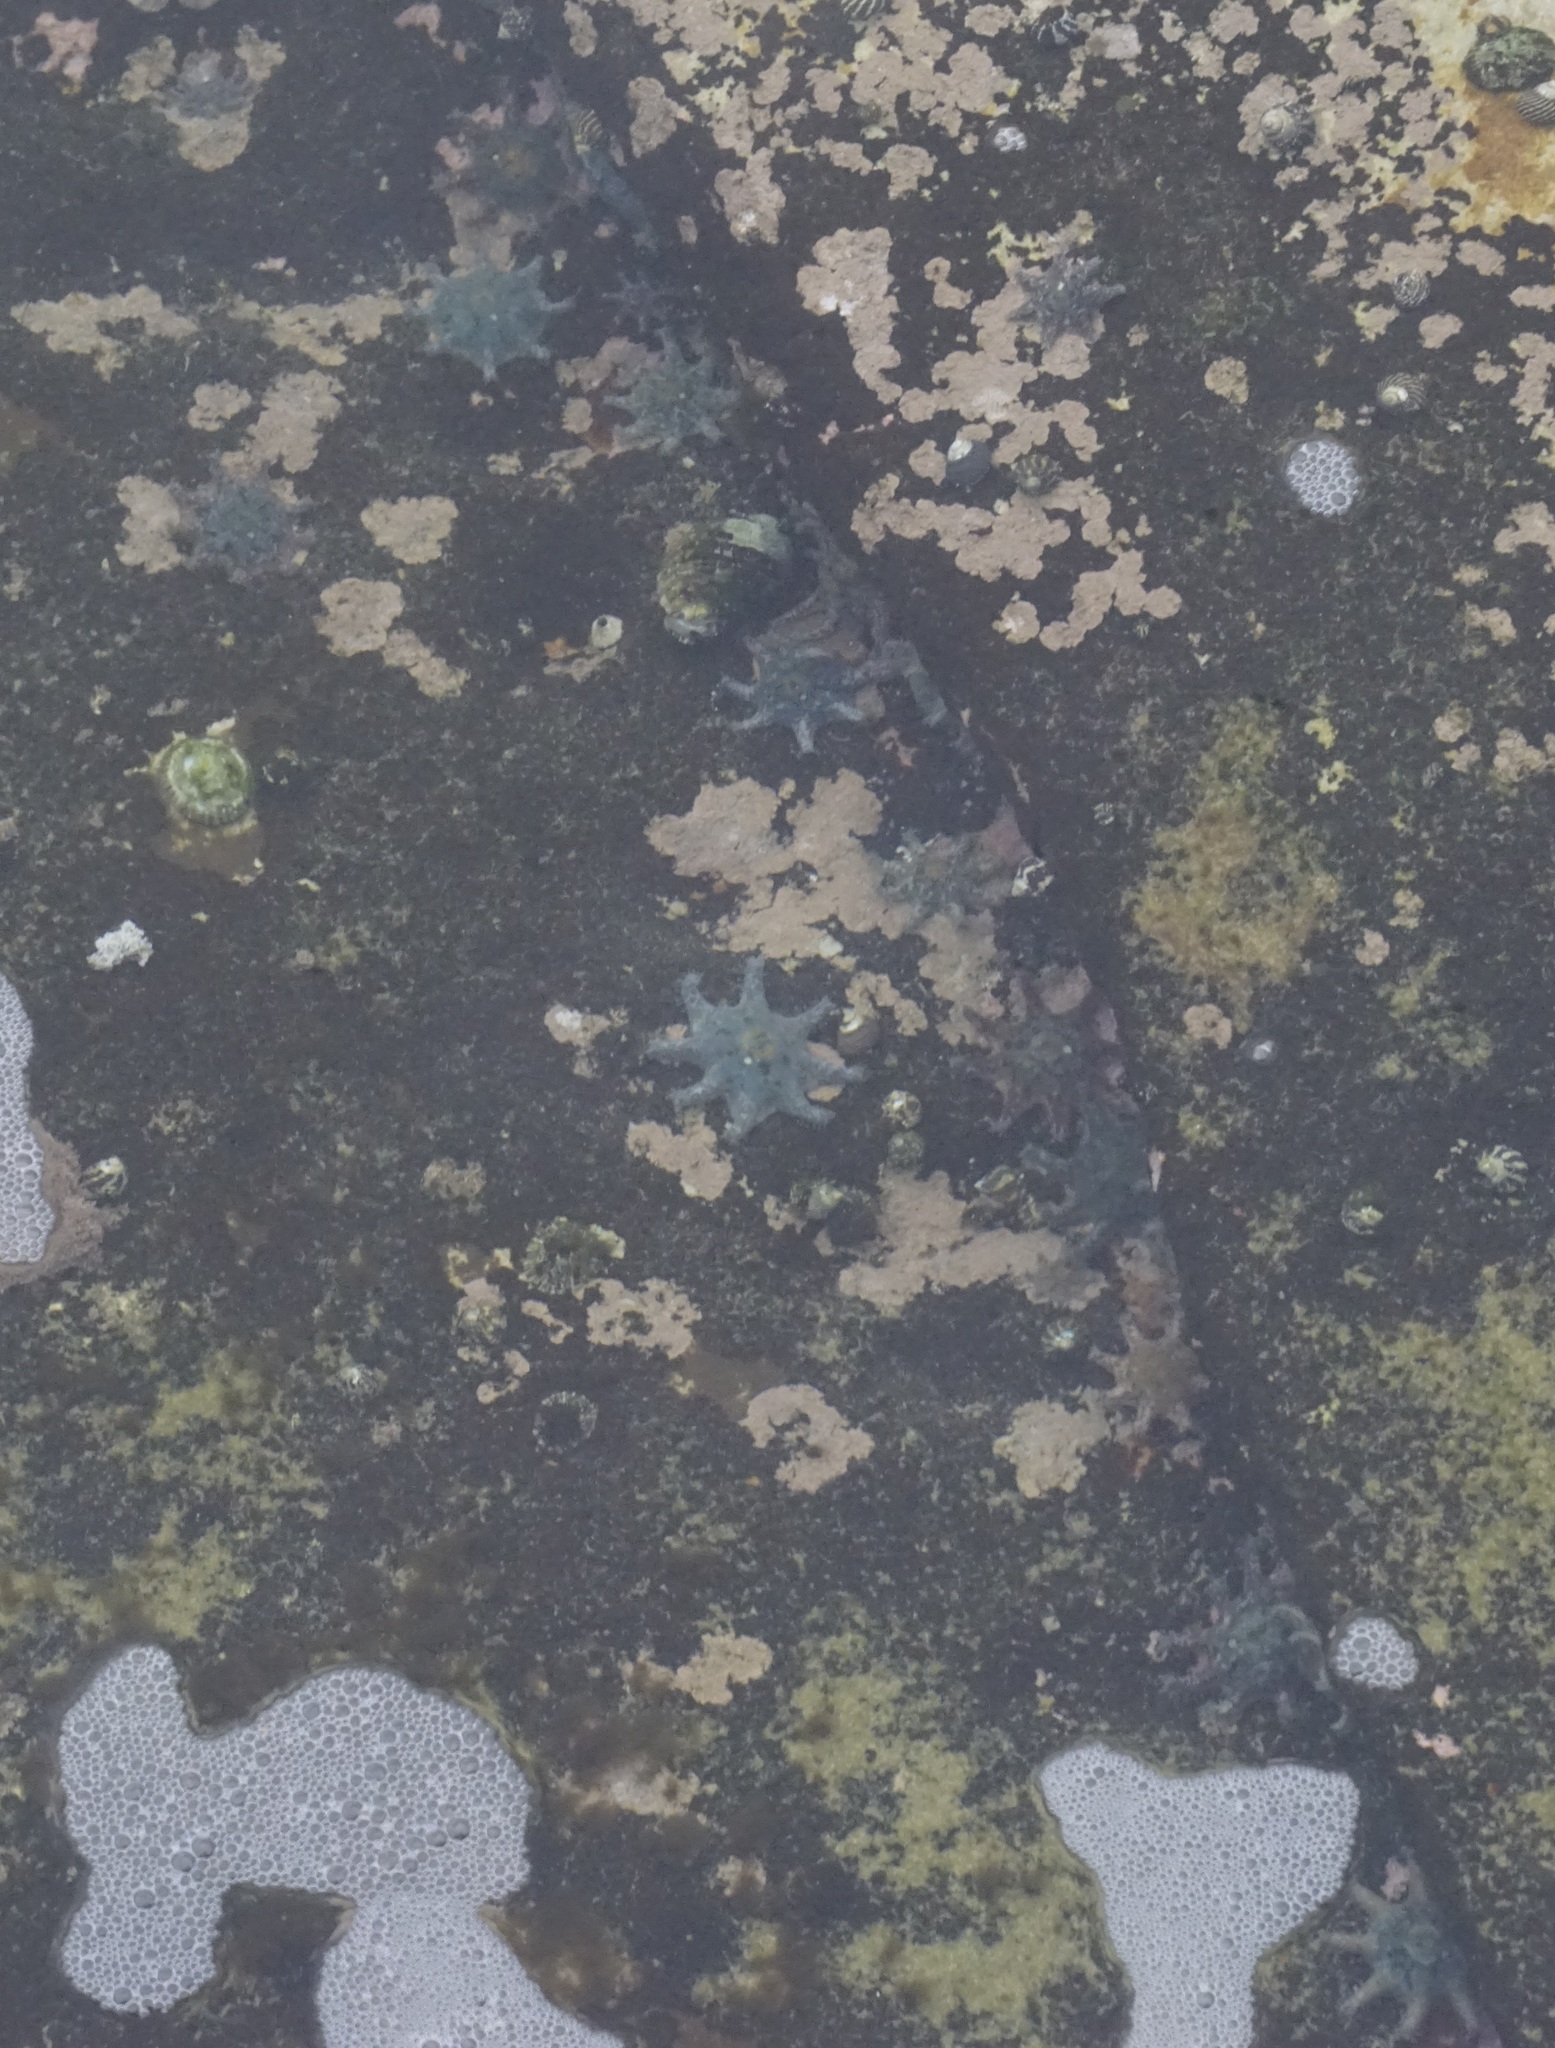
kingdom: Animalia
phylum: Echinodermata
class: Asteroidea
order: Valvatida
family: Asterinidae
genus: Meridiastra
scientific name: Meridiastra calcar
